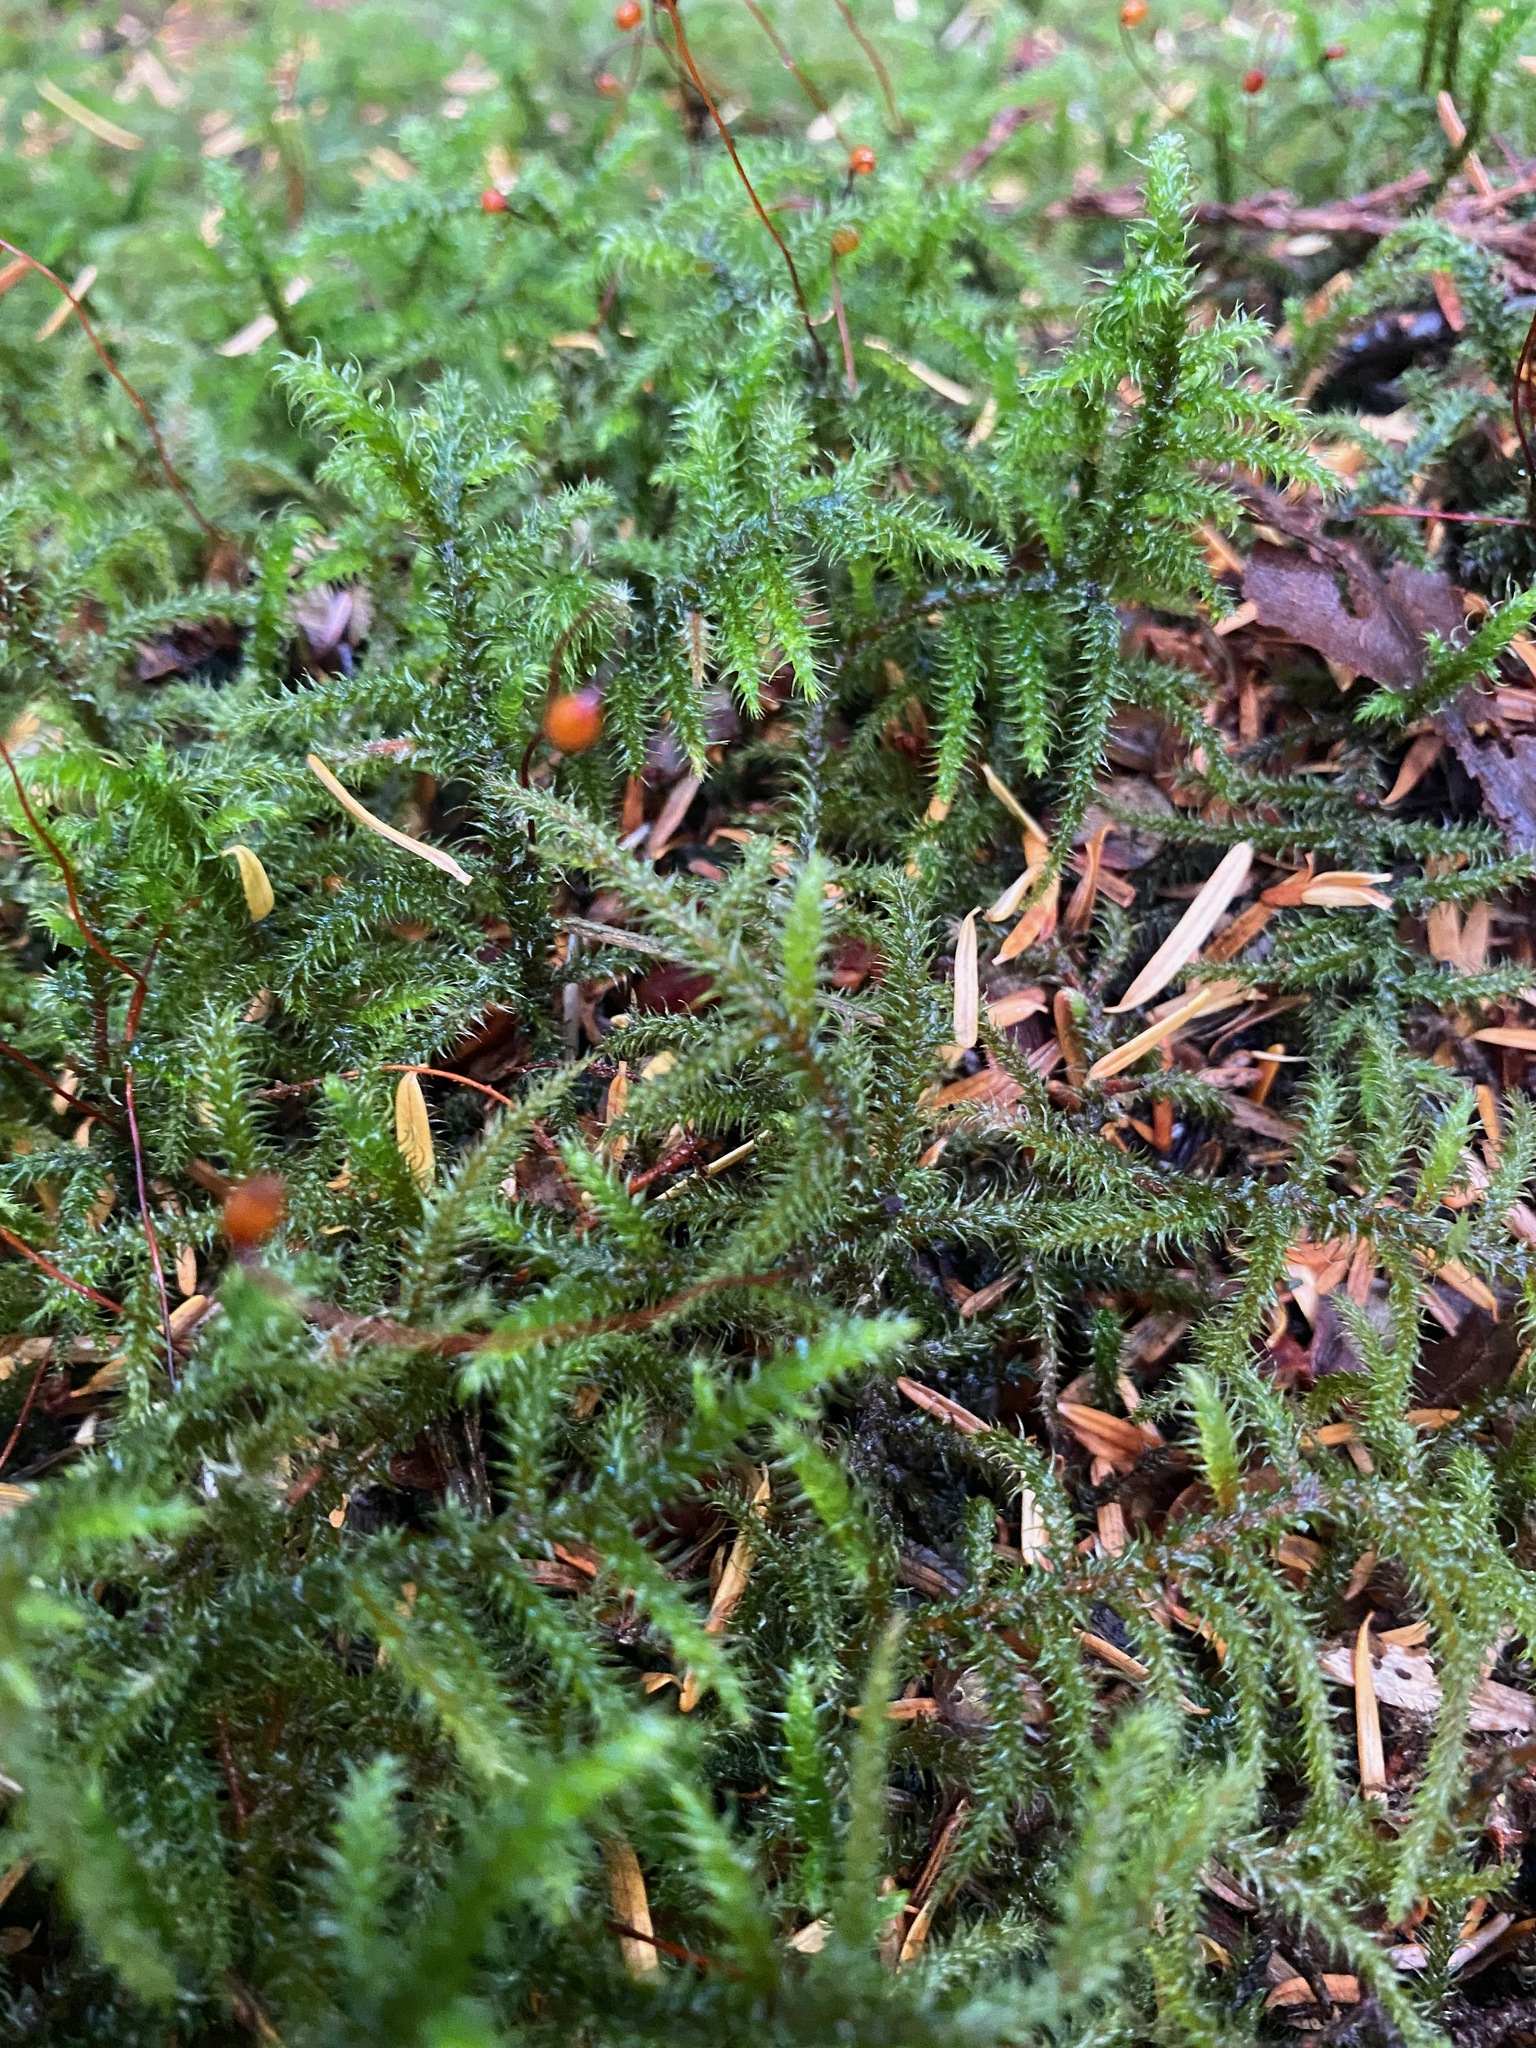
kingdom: Plantae
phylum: Bryophyta
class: Bryopsida
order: Hypnales
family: Hylocomiaceae
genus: Rhytidiadelphus
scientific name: Rhytidiadelphus loreus
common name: Lanky moss
